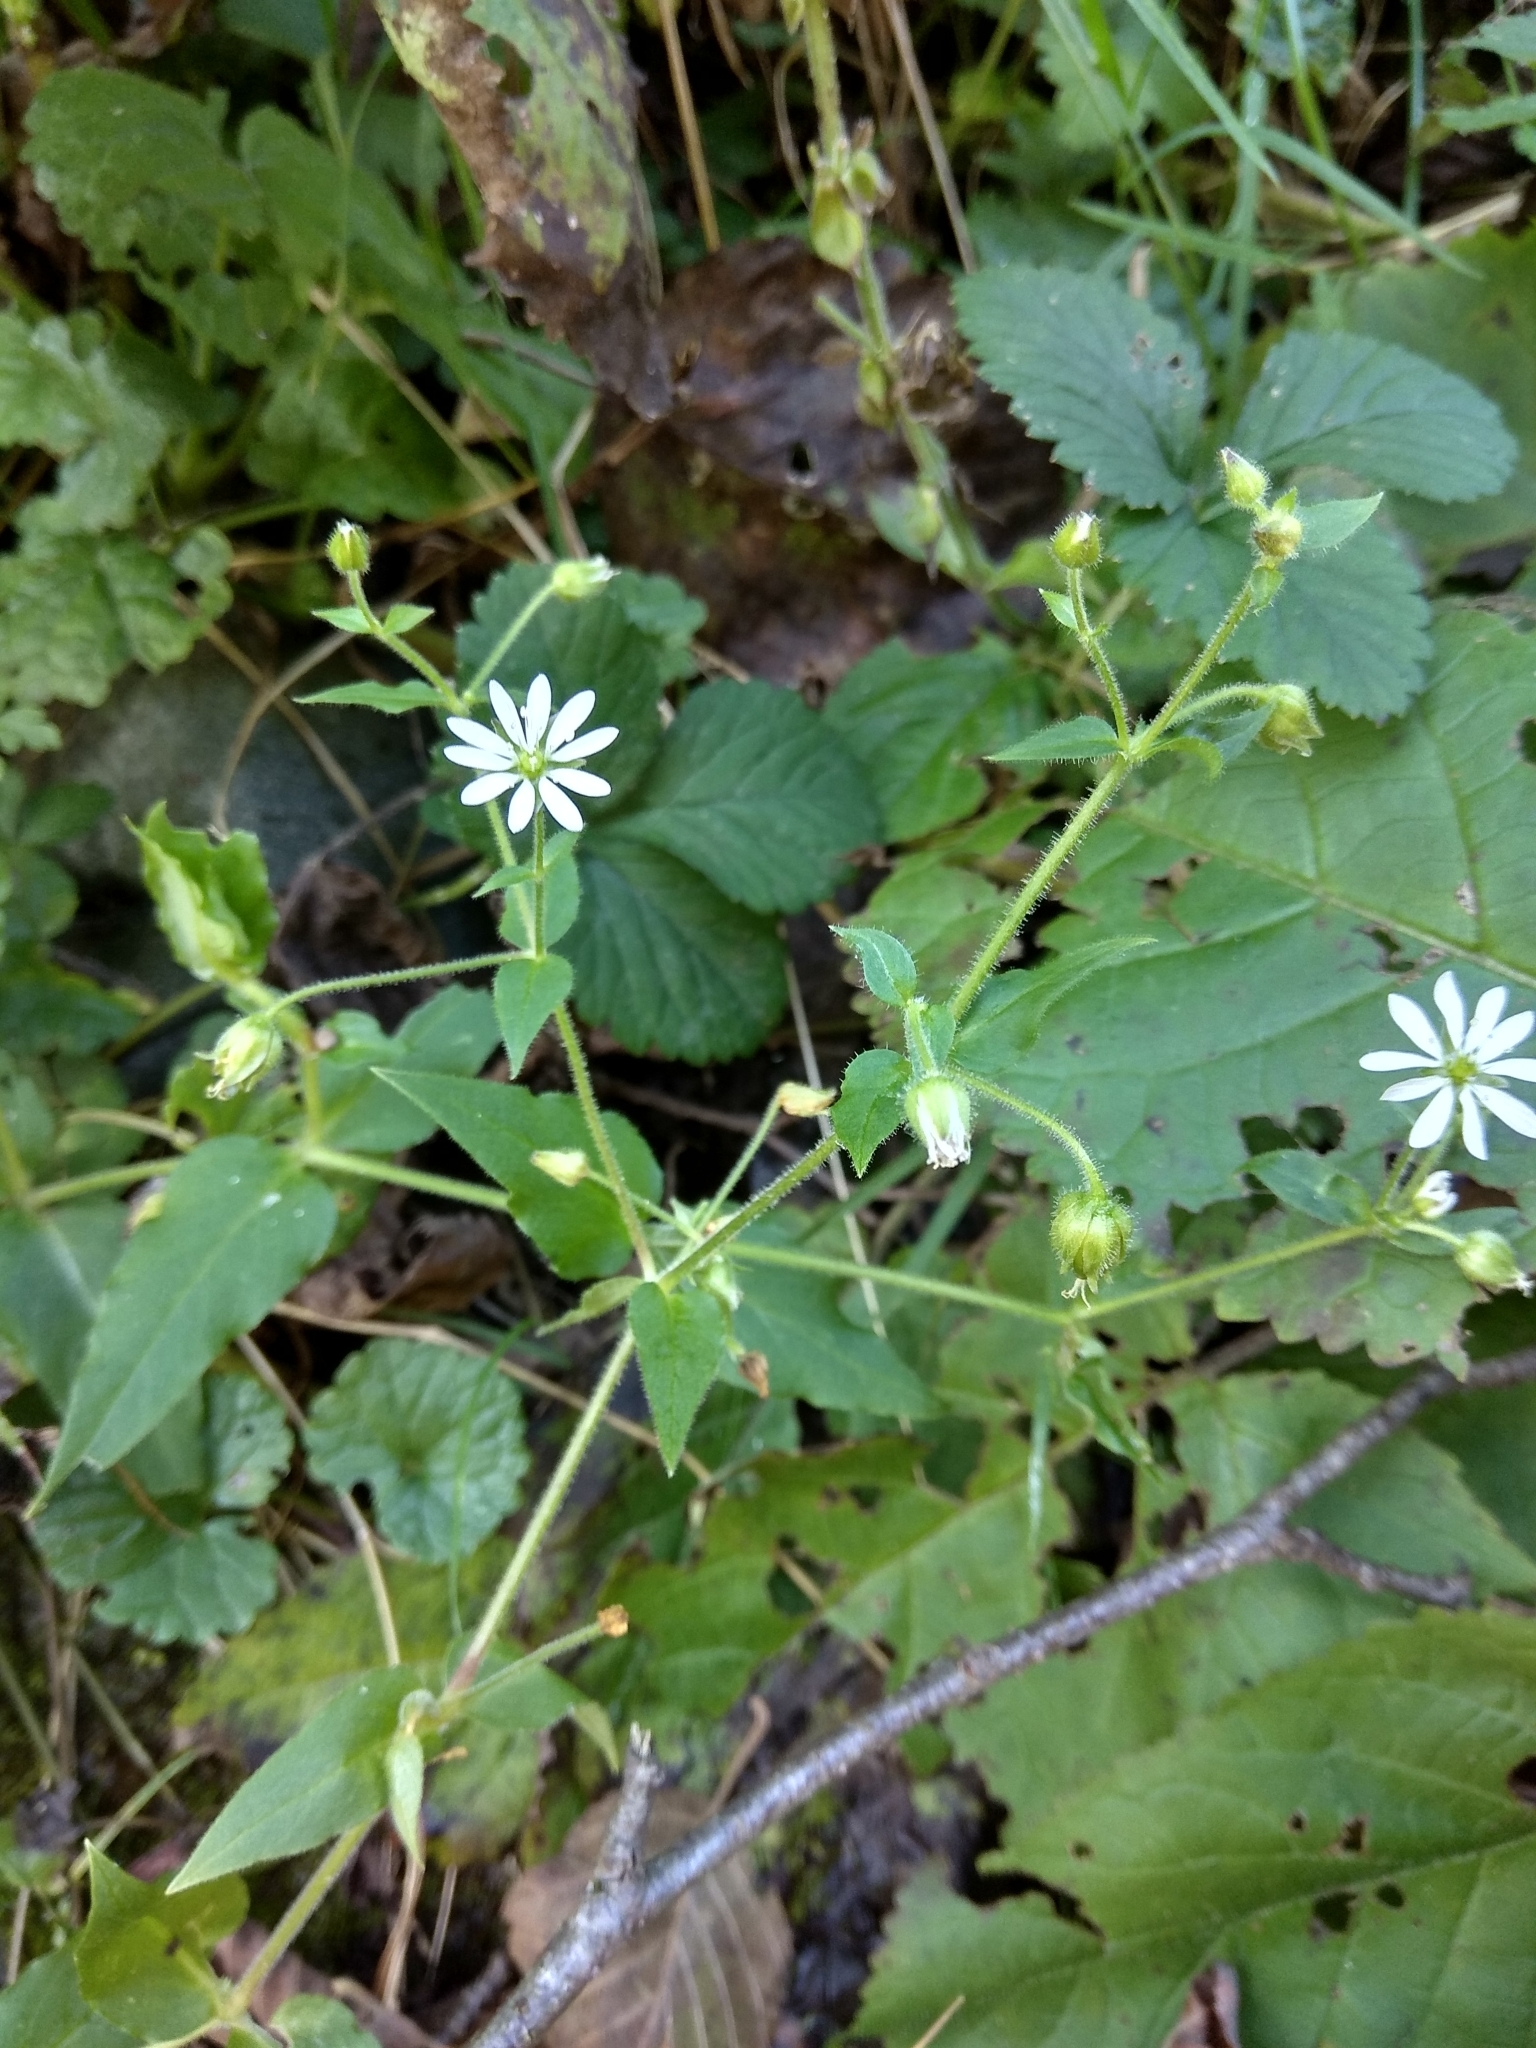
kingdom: Plantae
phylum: Tracheophyta
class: Magnoliopsida
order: Caryophyllales
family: Caryophyllaceae
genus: Stellaria
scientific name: Stellaria aquatica
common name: Water chickweed
